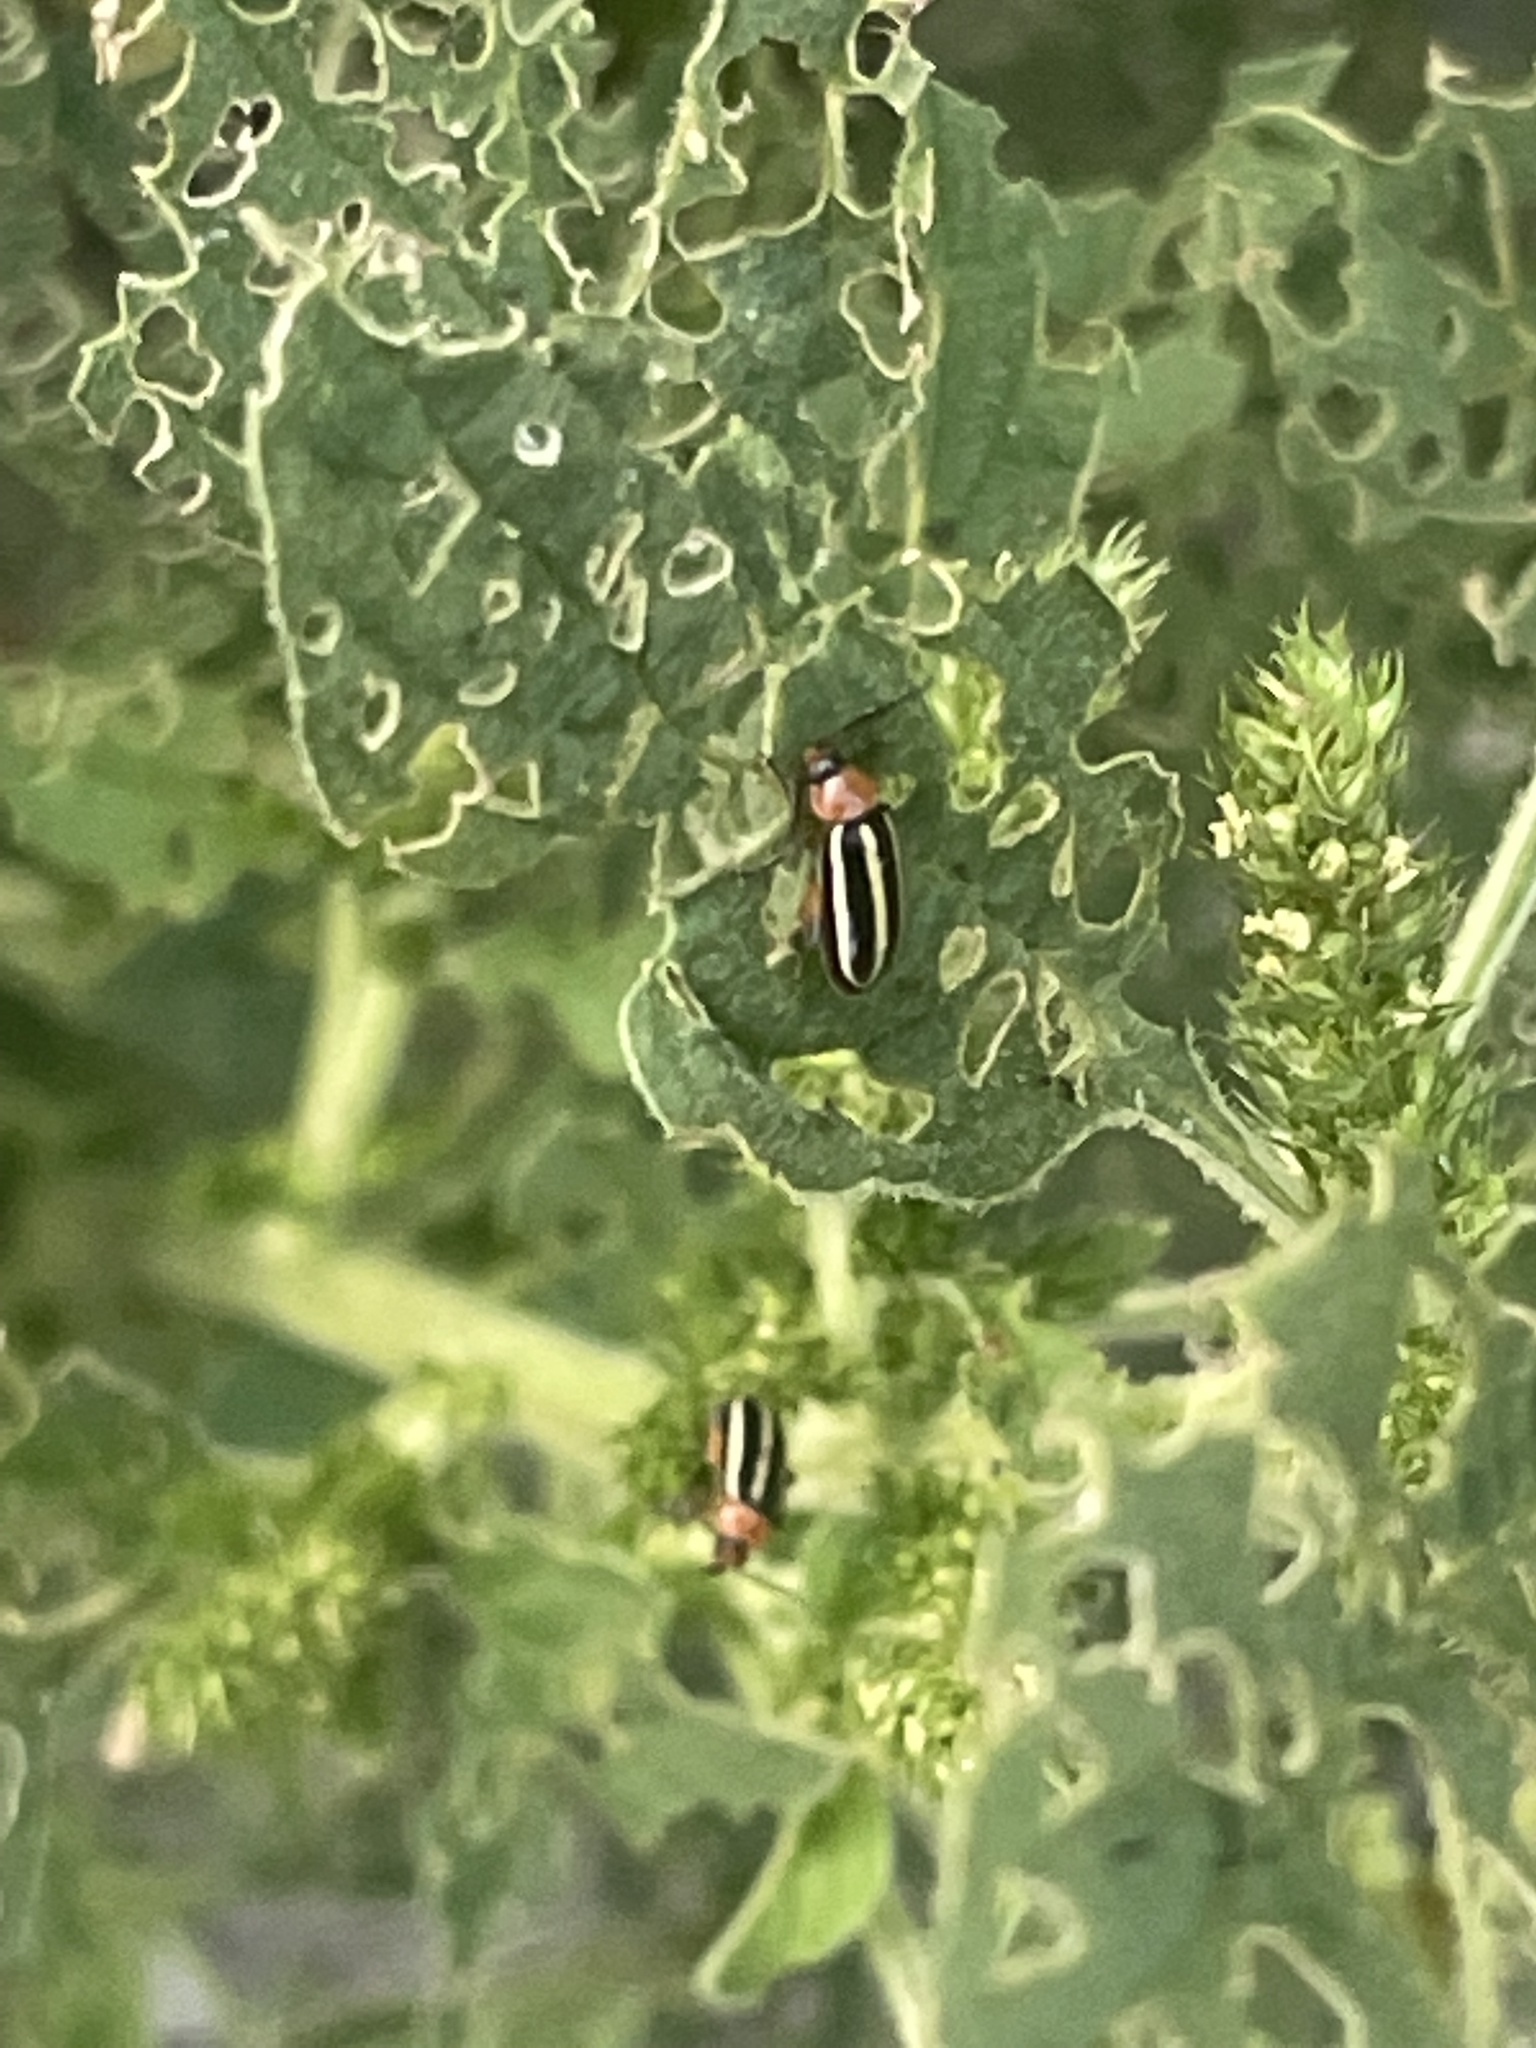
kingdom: Animalia
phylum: Arthropoda
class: Insecta
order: Coleoptera
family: Chrysomelidae
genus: Disonycha
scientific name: Disonycha glabrata
